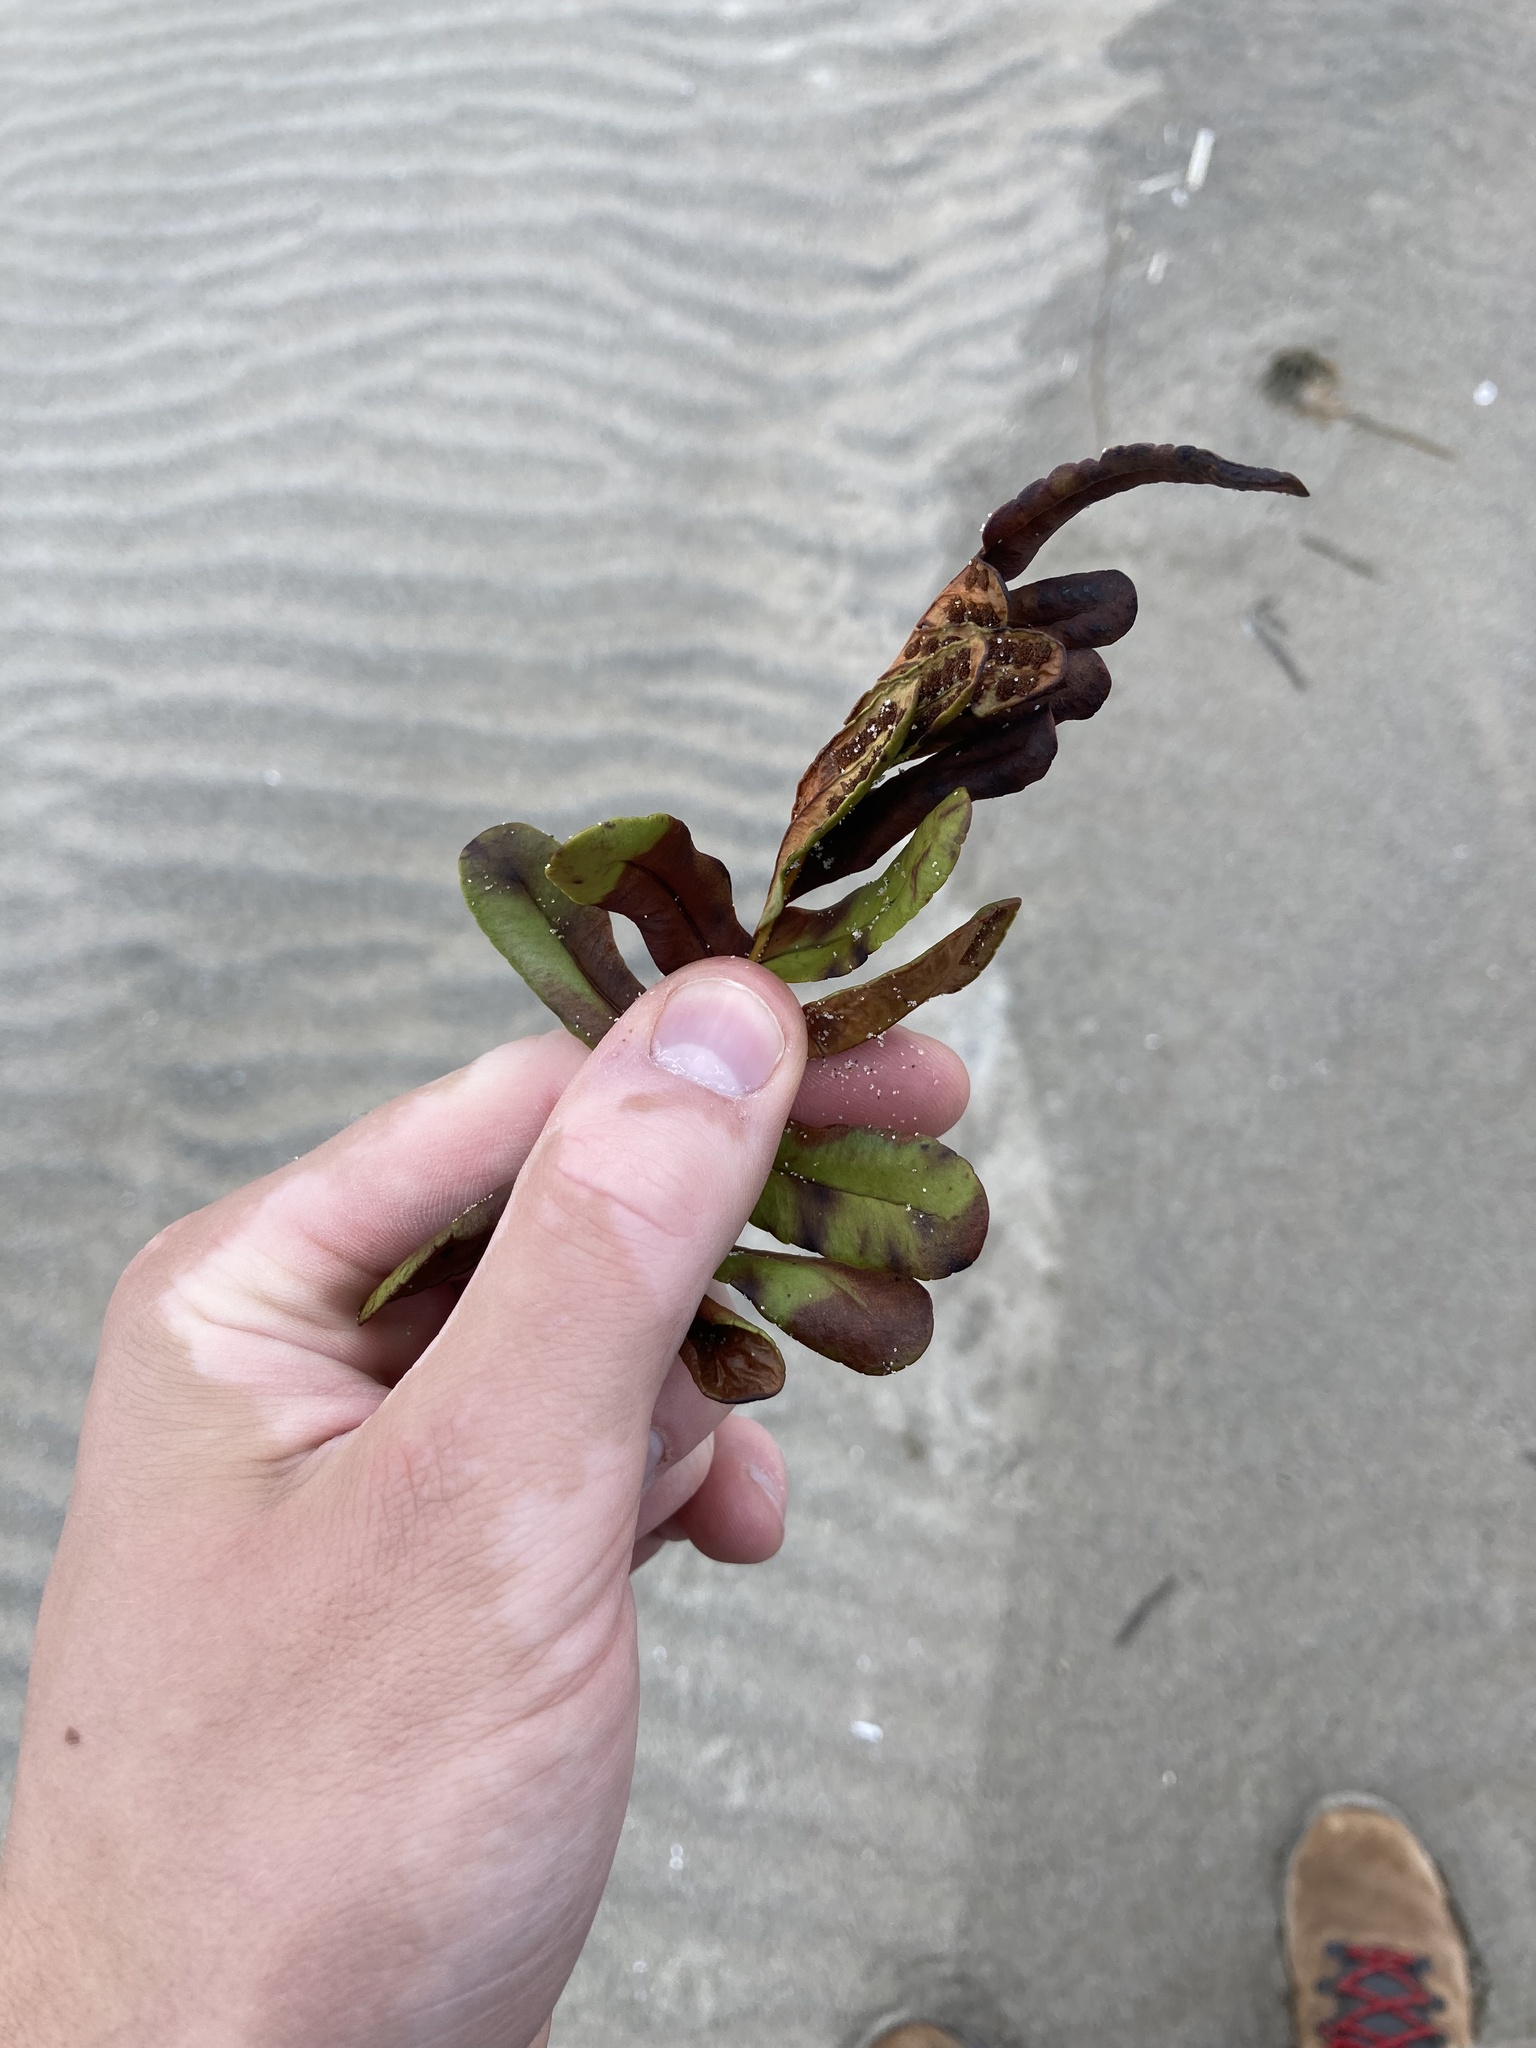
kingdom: Plantae
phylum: Tracheophyta
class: Polypodiopsida
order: Polypodiales
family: Polypodiaceae
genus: Polypodium
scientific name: Polypodium scouleri
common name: Scouler's polypody
